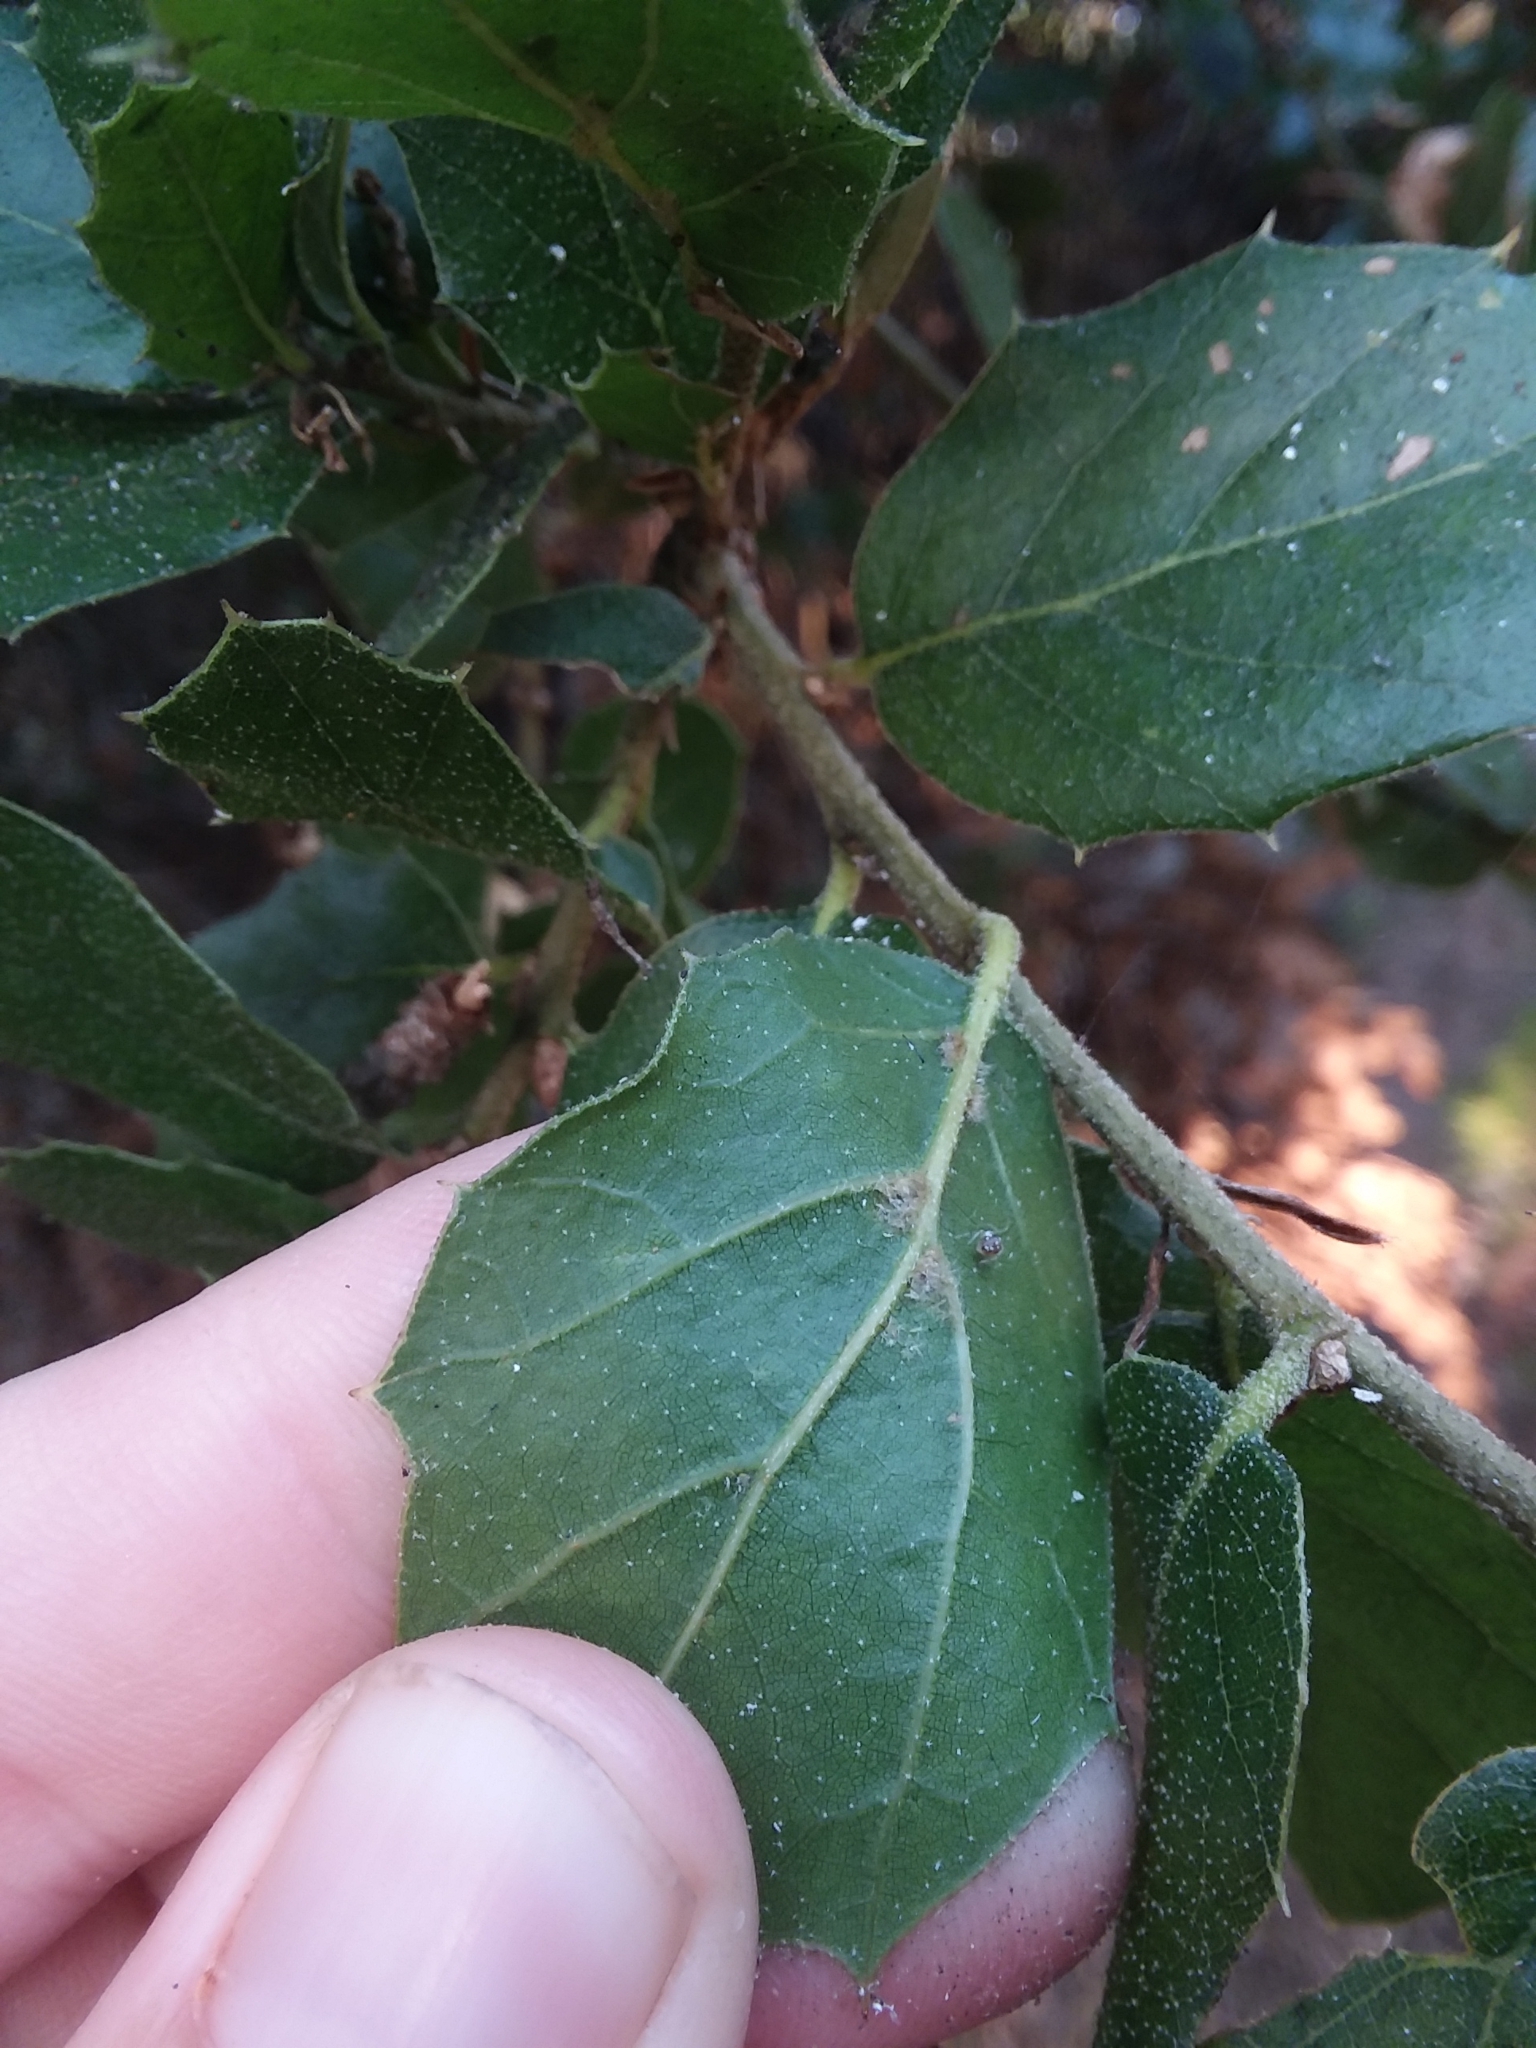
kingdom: Plantae
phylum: Tracheophyta
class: Magnoliopsida
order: Fagales
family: Fagaceae
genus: Quercus
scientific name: Quercus agrifolia
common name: California live oak
